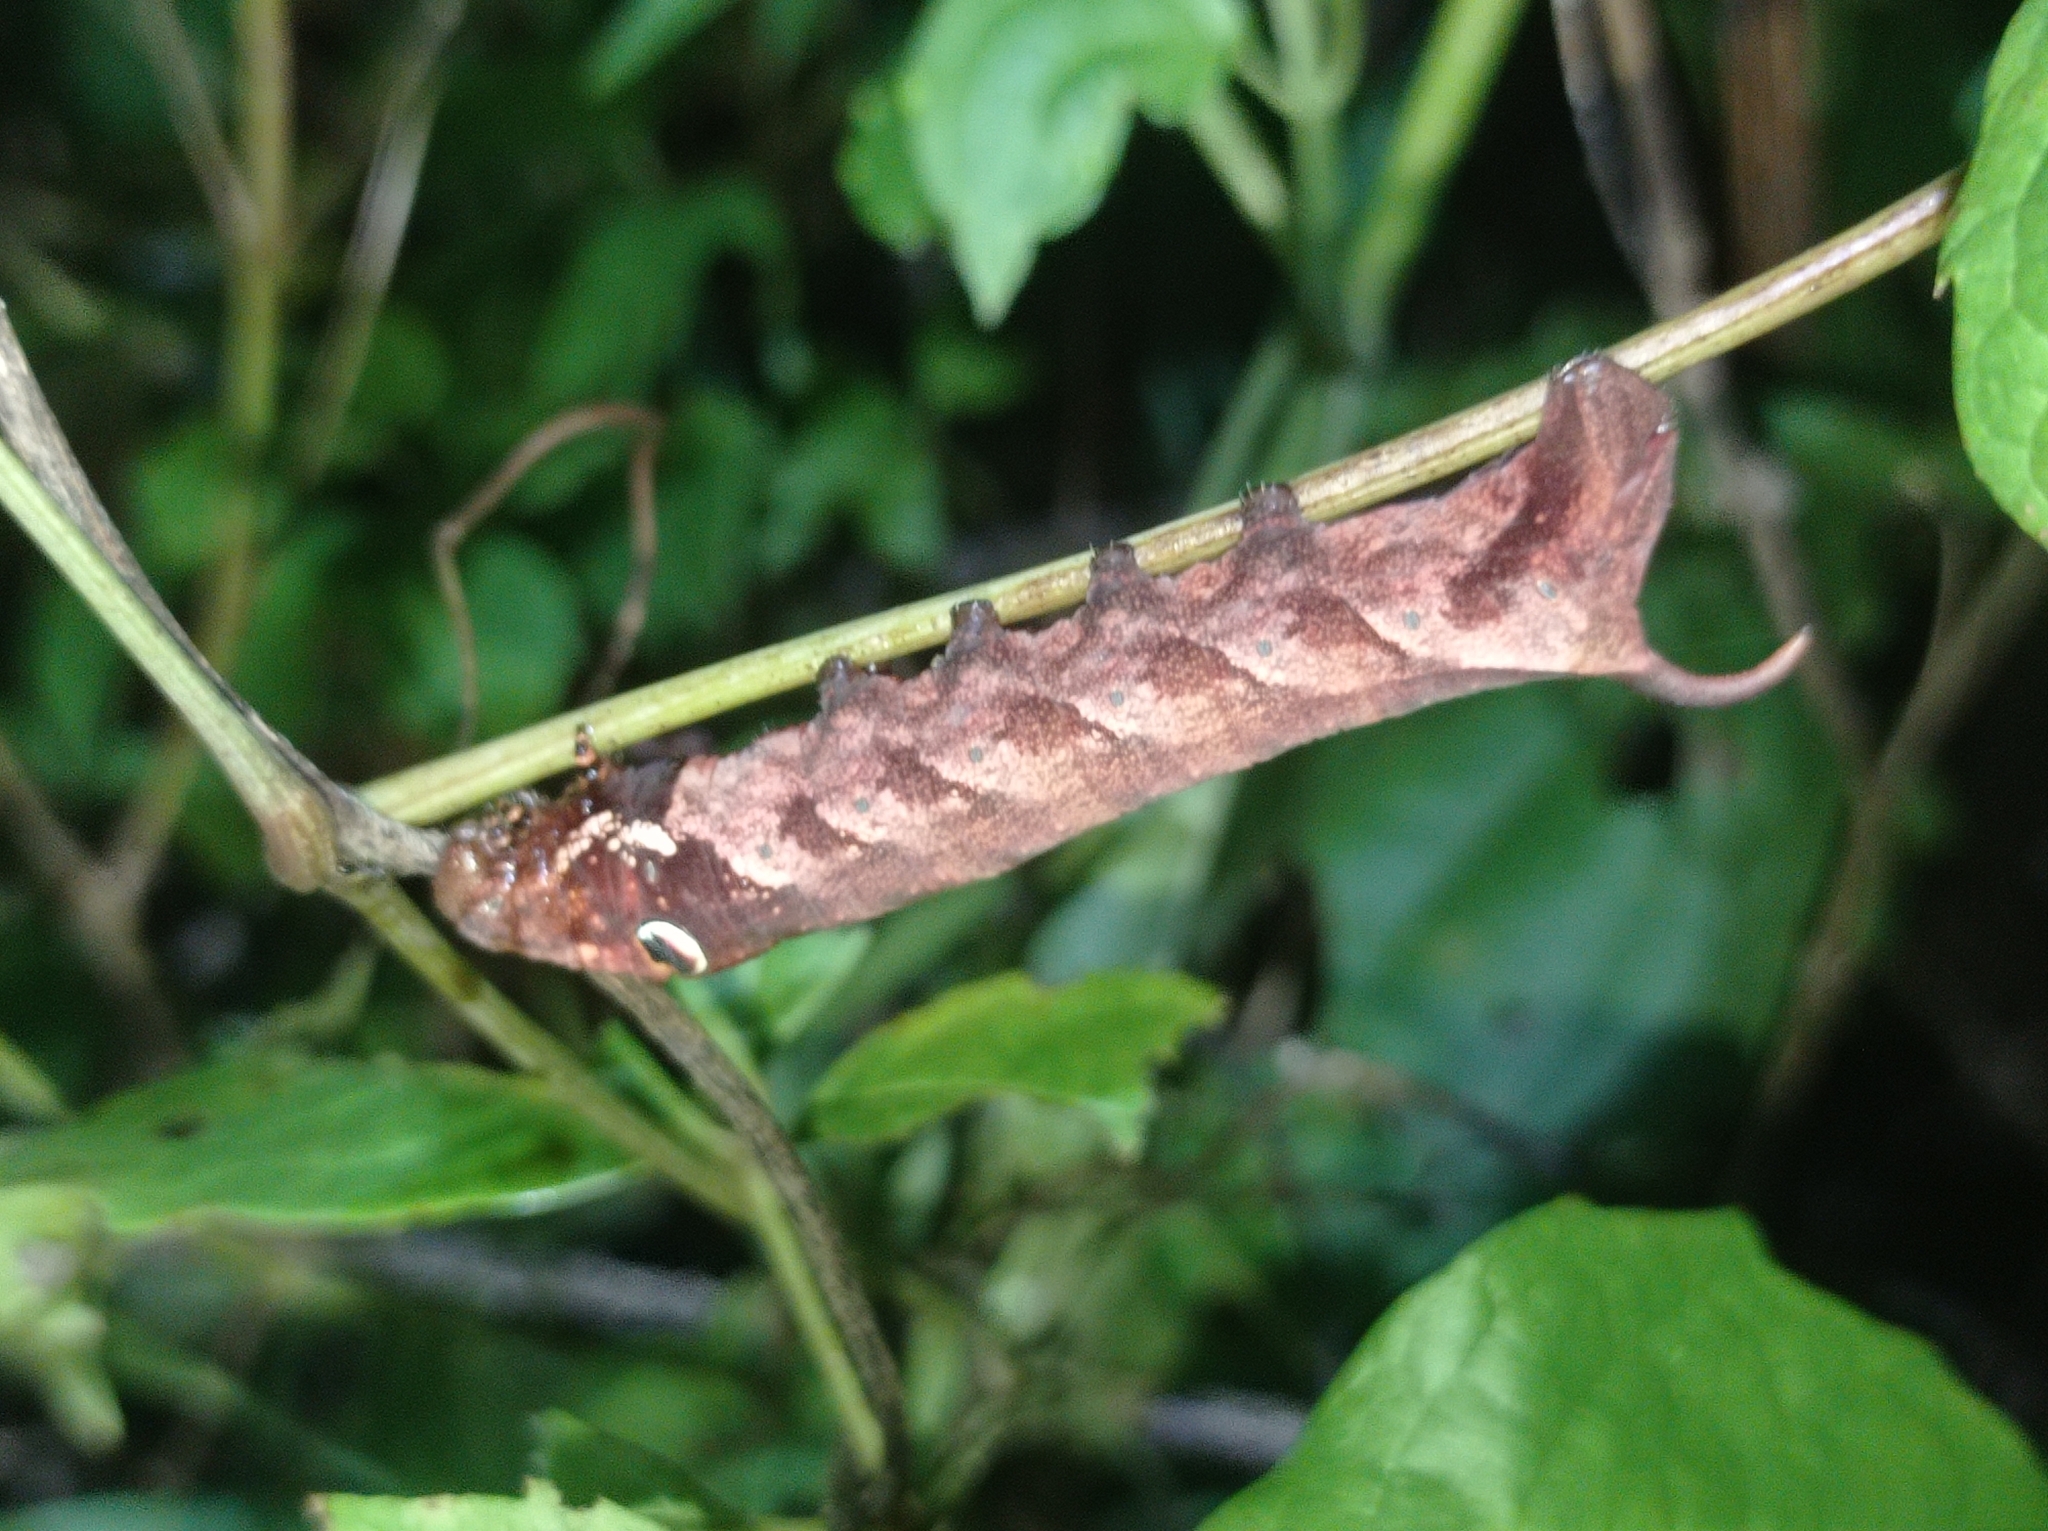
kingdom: Animalia
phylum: Arthropoda
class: Insecta
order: Lepidoptera
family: Sphingidae
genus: Theretra
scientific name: Theretra rhesus
